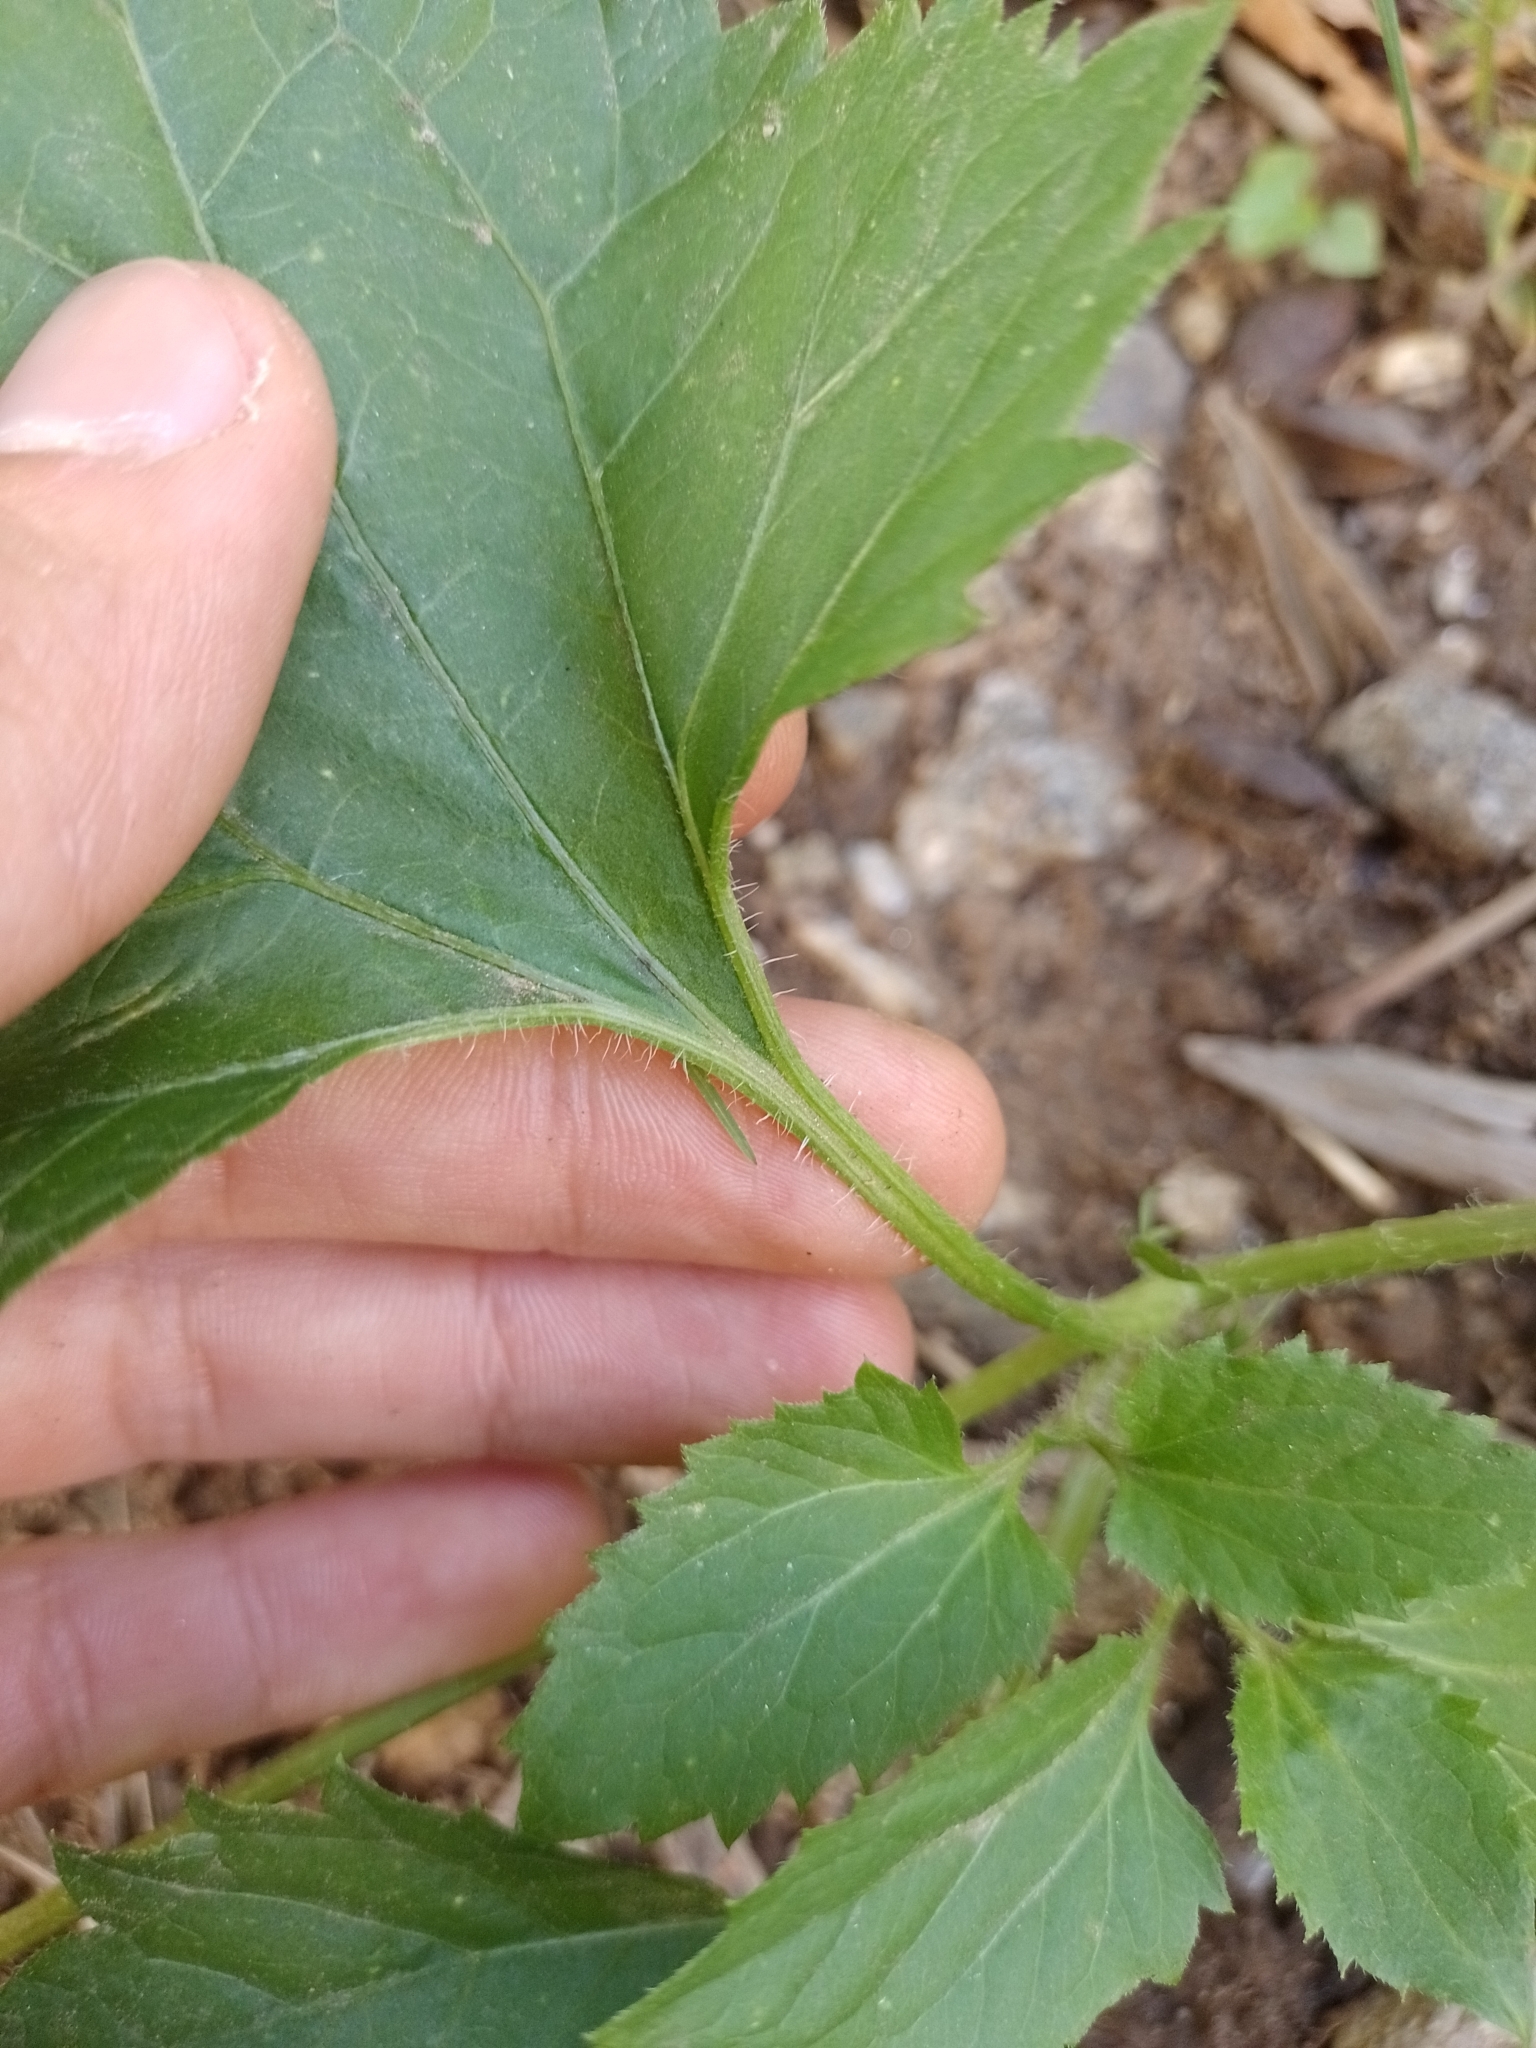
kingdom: Plantae
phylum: Tracheophyta
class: Magnoliopsida
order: Asterales
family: Asteraceae
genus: Mikania
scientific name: Mikania urticifolia
